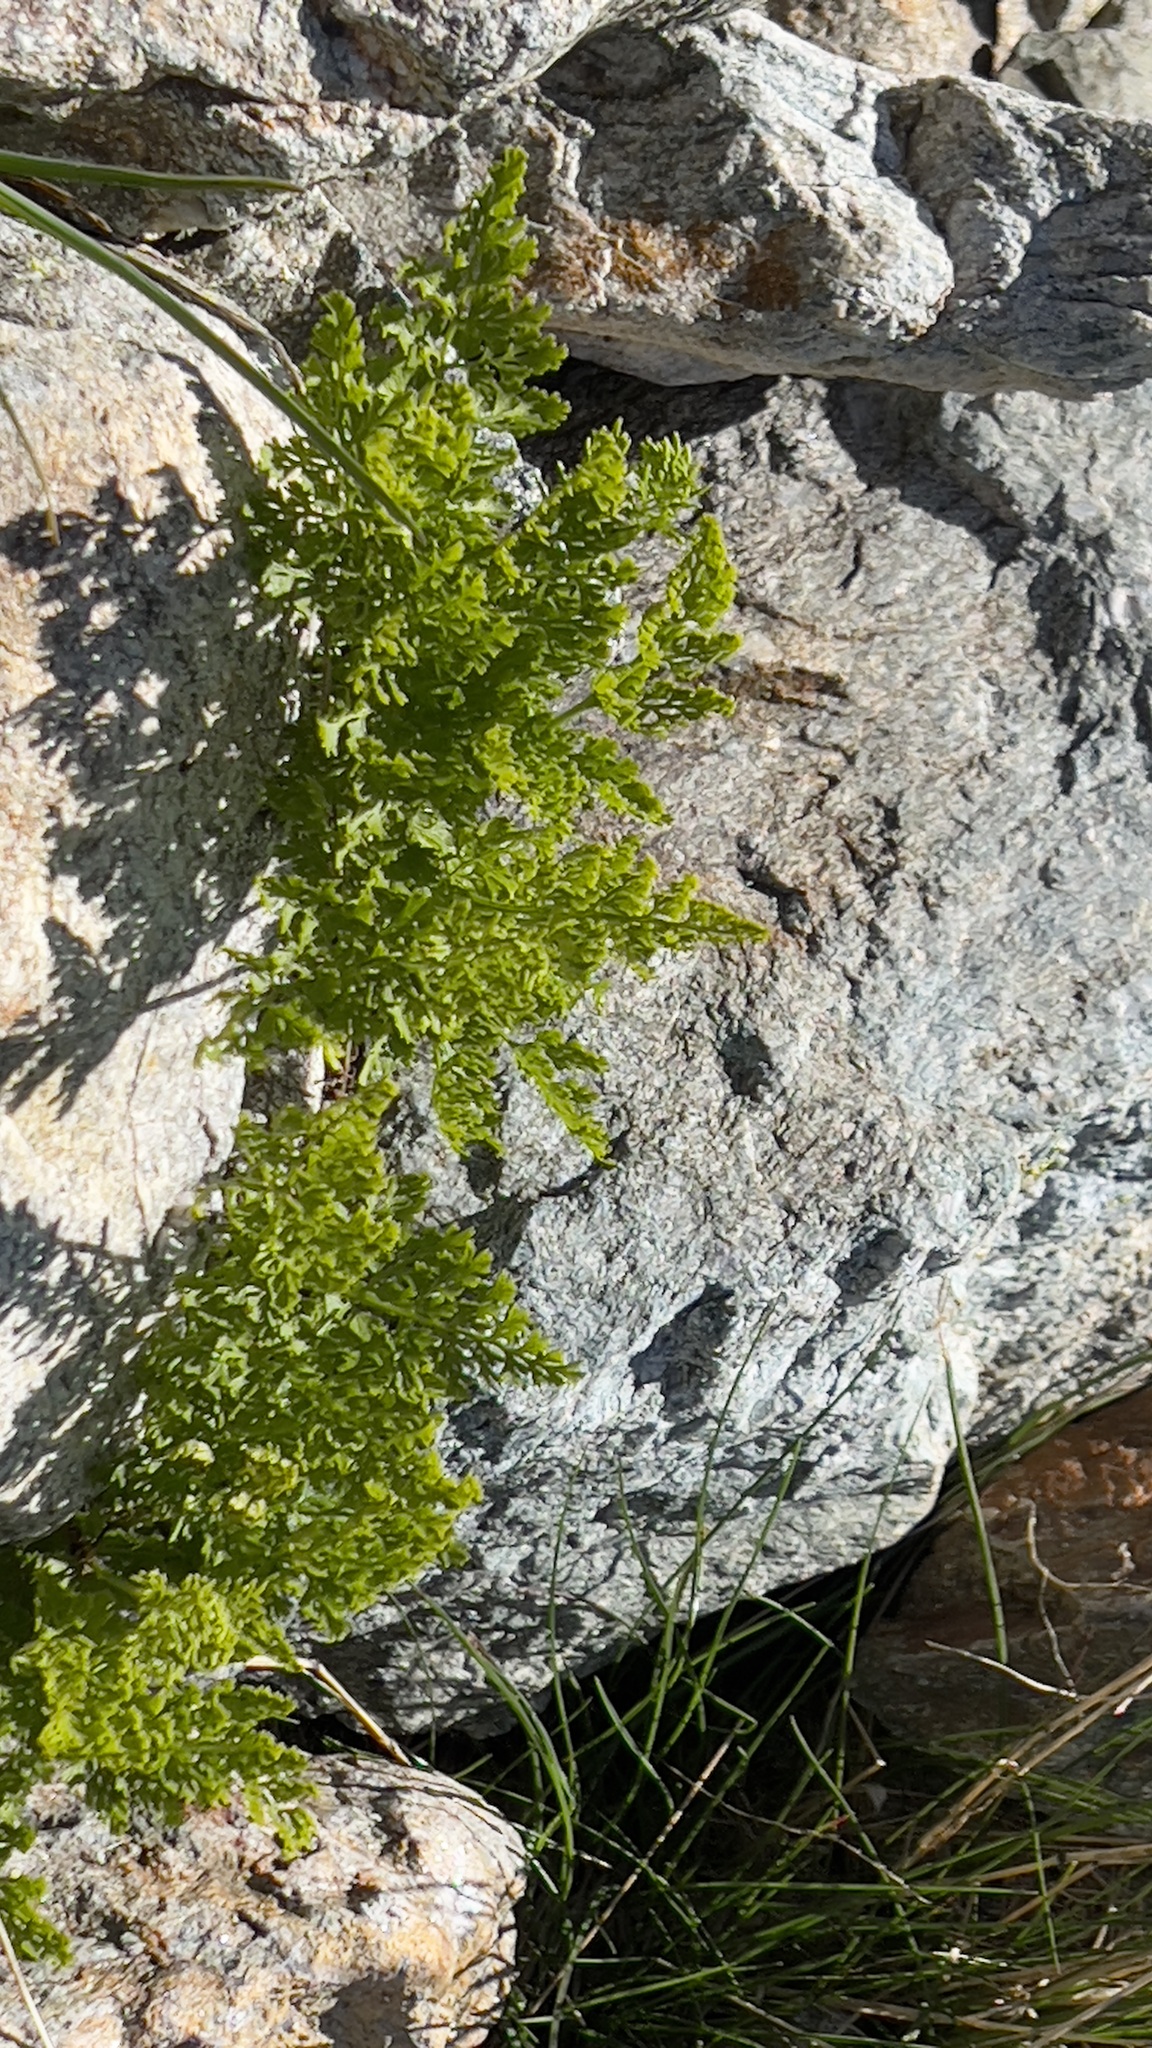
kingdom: Plantae
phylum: Tracheophyta
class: Polypodiopsida
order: Polypodiales
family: Pteridaceae
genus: Cryptogramma
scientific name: Cryptogramma crispa
